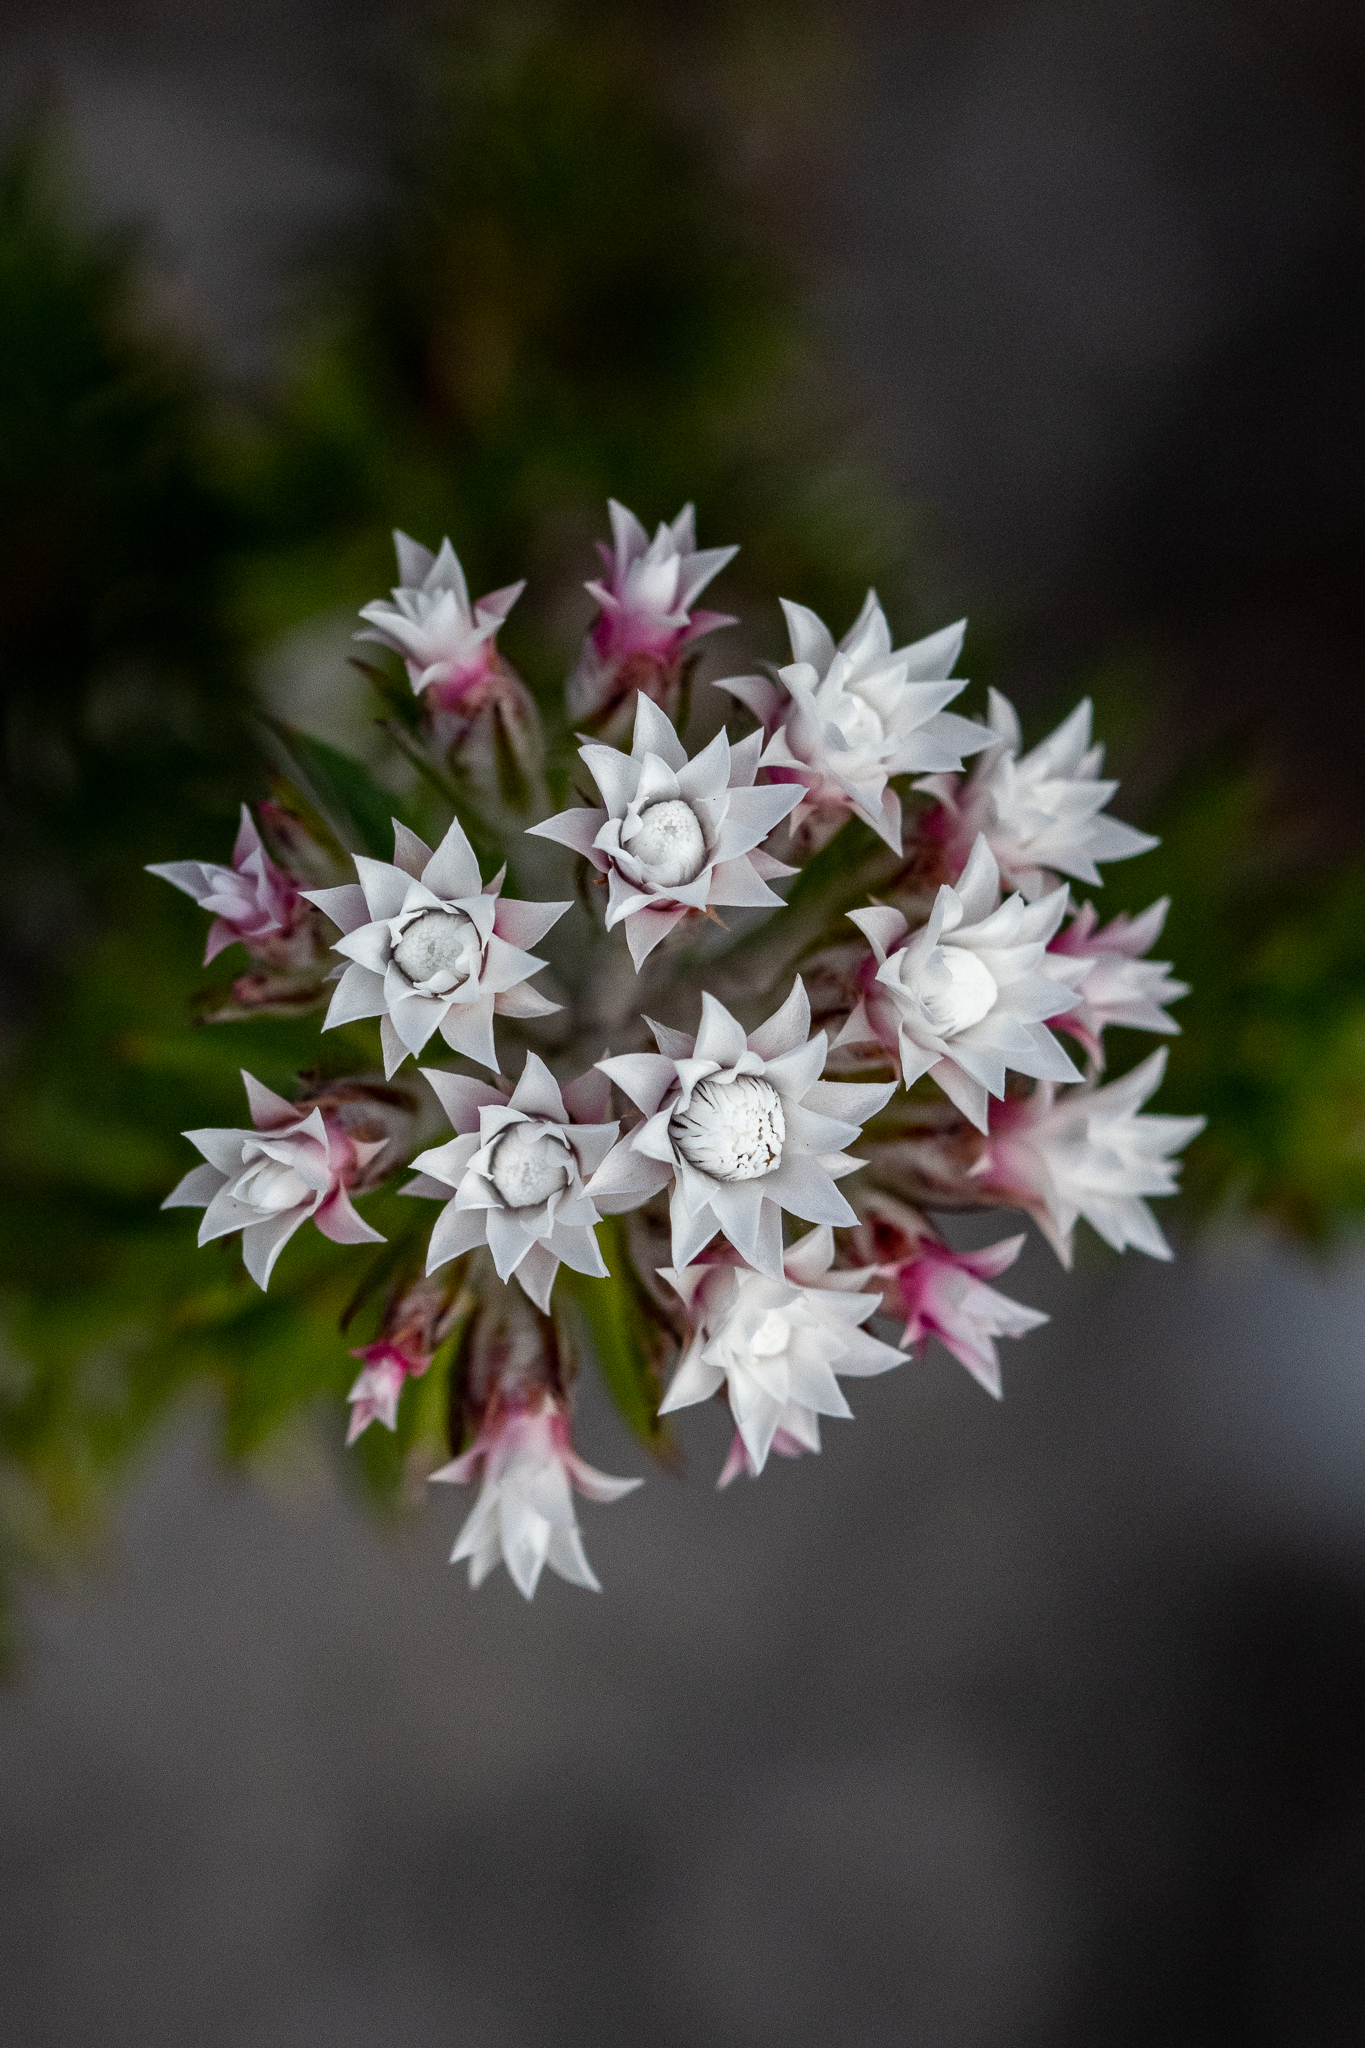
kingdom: Plantae
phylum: Tracheophyta
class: Magnoliopsida
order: Asterales
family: Asteraceae
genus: Metalasia
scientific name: Metalasia lichtensteinii
